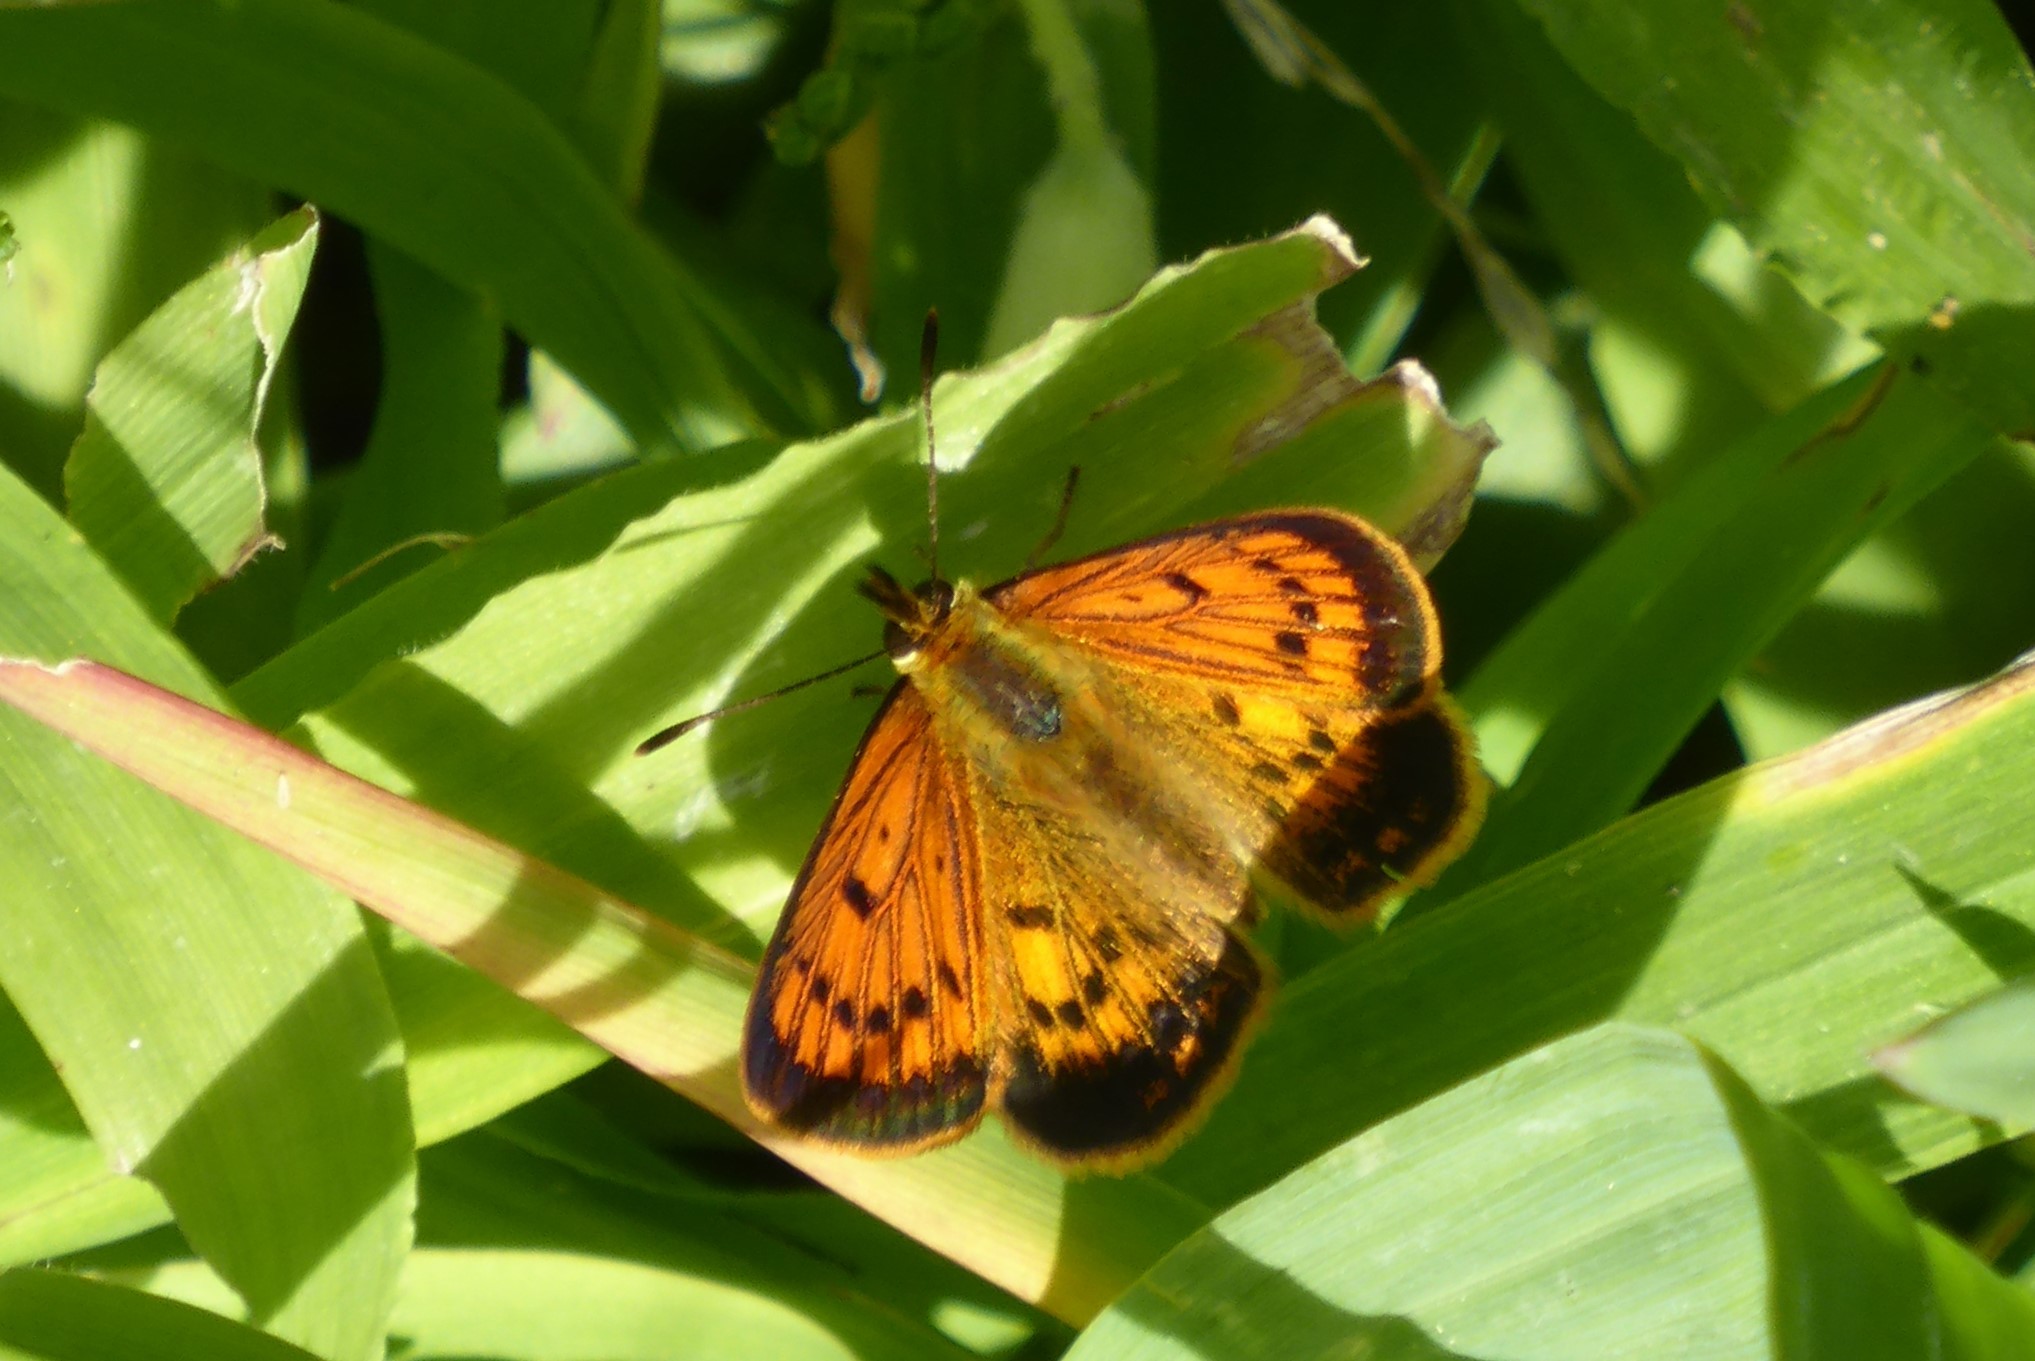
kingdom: Animalia
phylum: Arthropoda
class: Insecta
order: Lepidoptera
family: Lycaenidae
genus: Lycaena
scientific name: Lycaena
